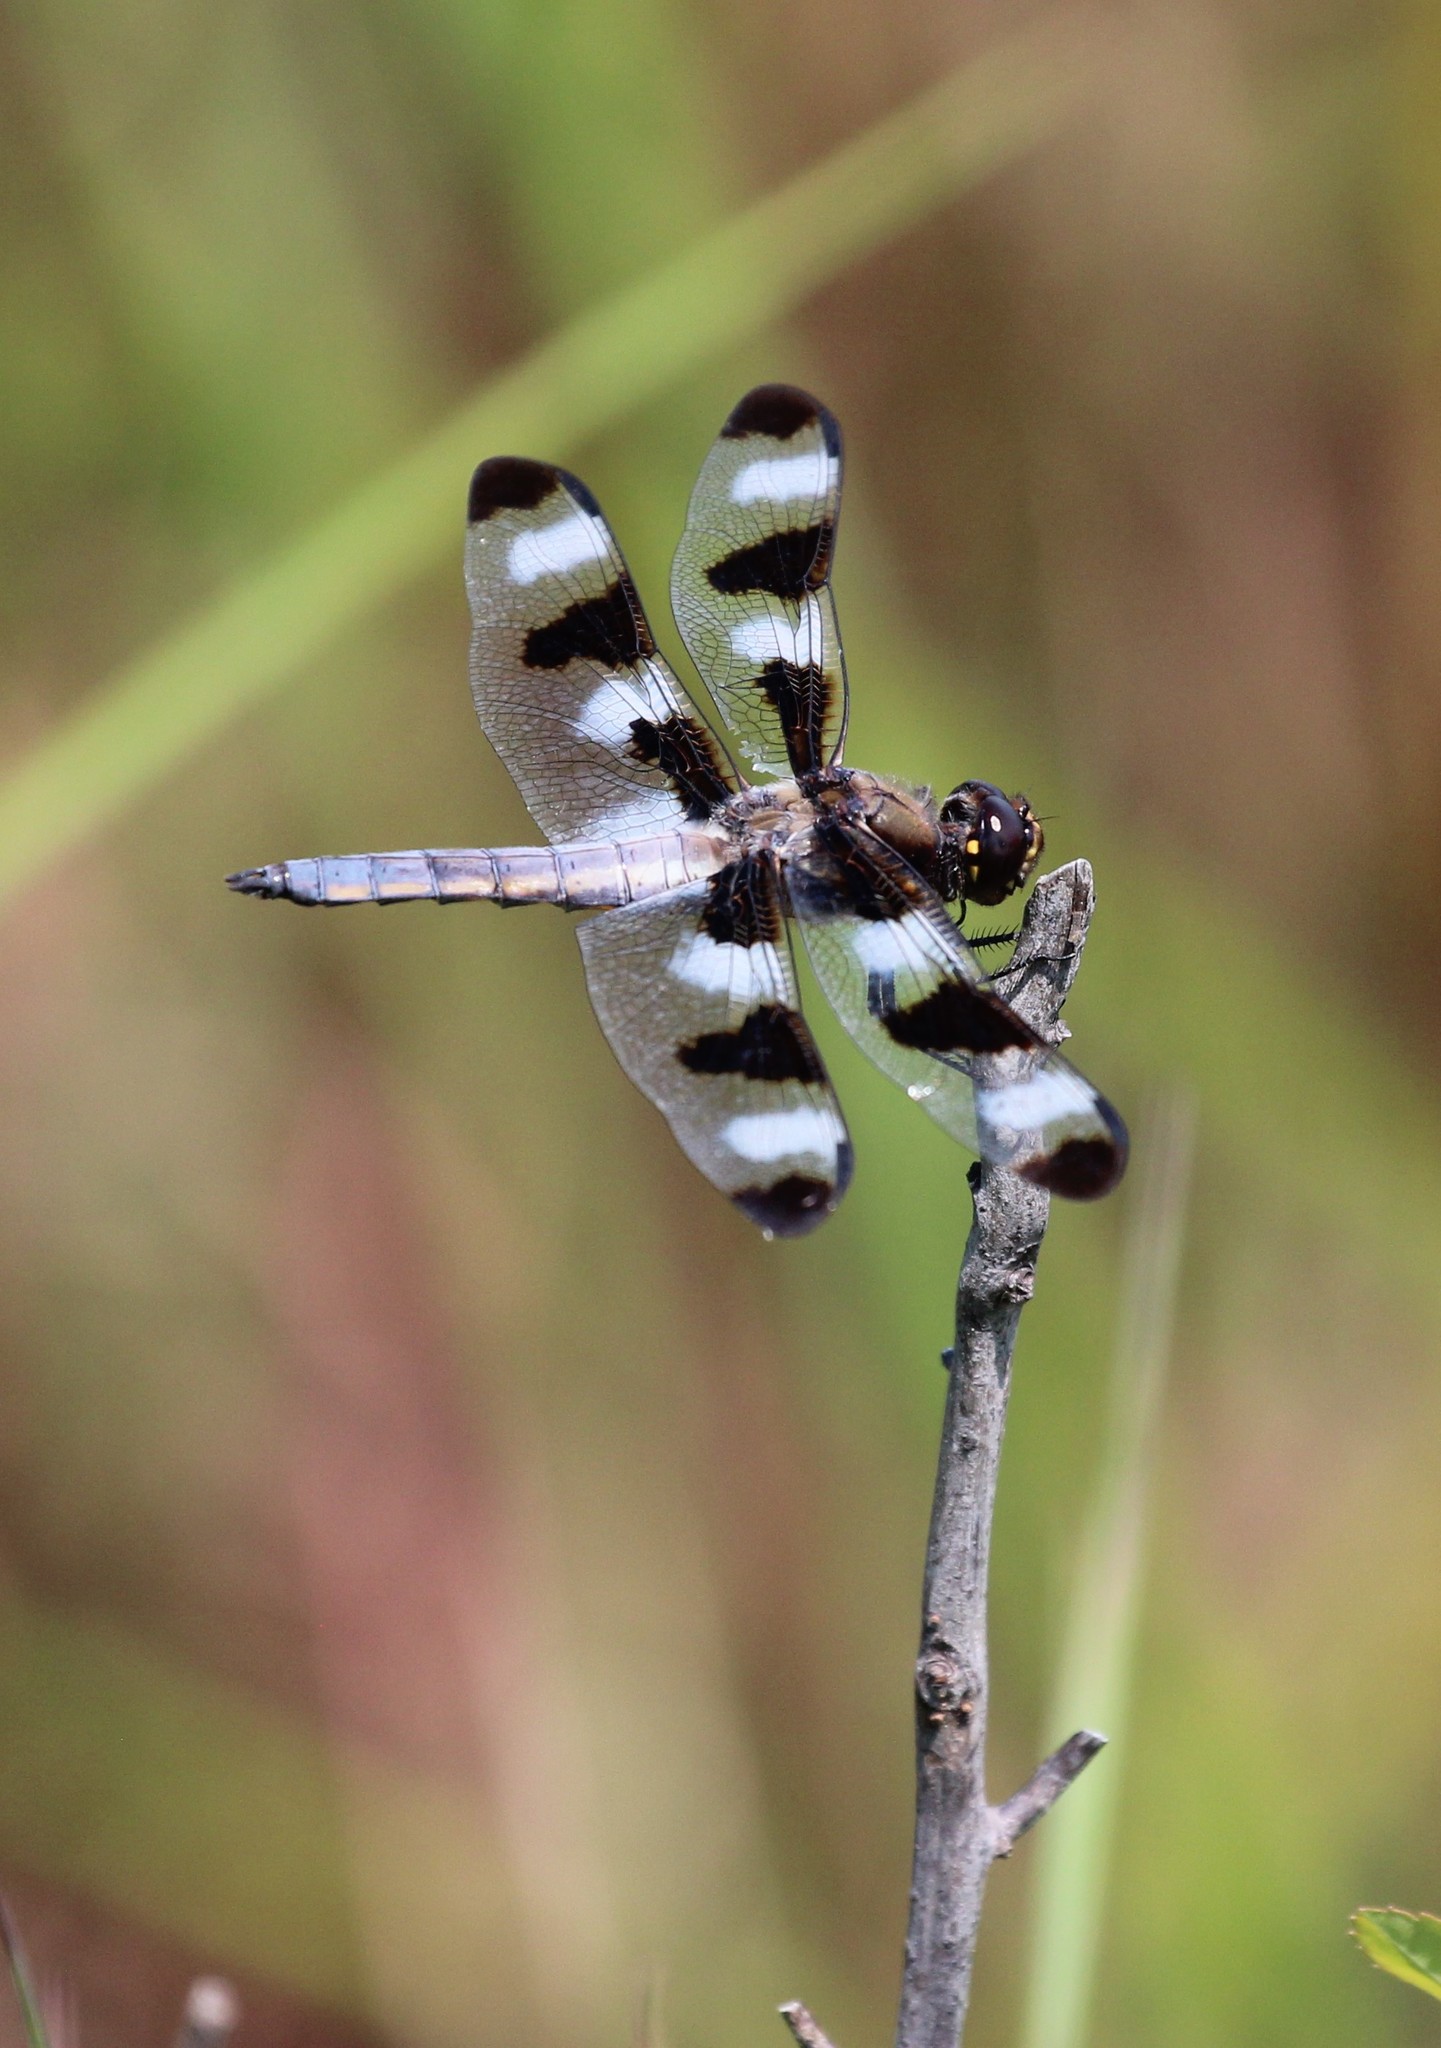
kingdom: Animalia
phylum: Arthropoda
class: Insecta
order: Odonata
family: Libellulidae
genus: Libellula
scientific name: Libellula pulchella
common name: Twelve-spotted skimmer
